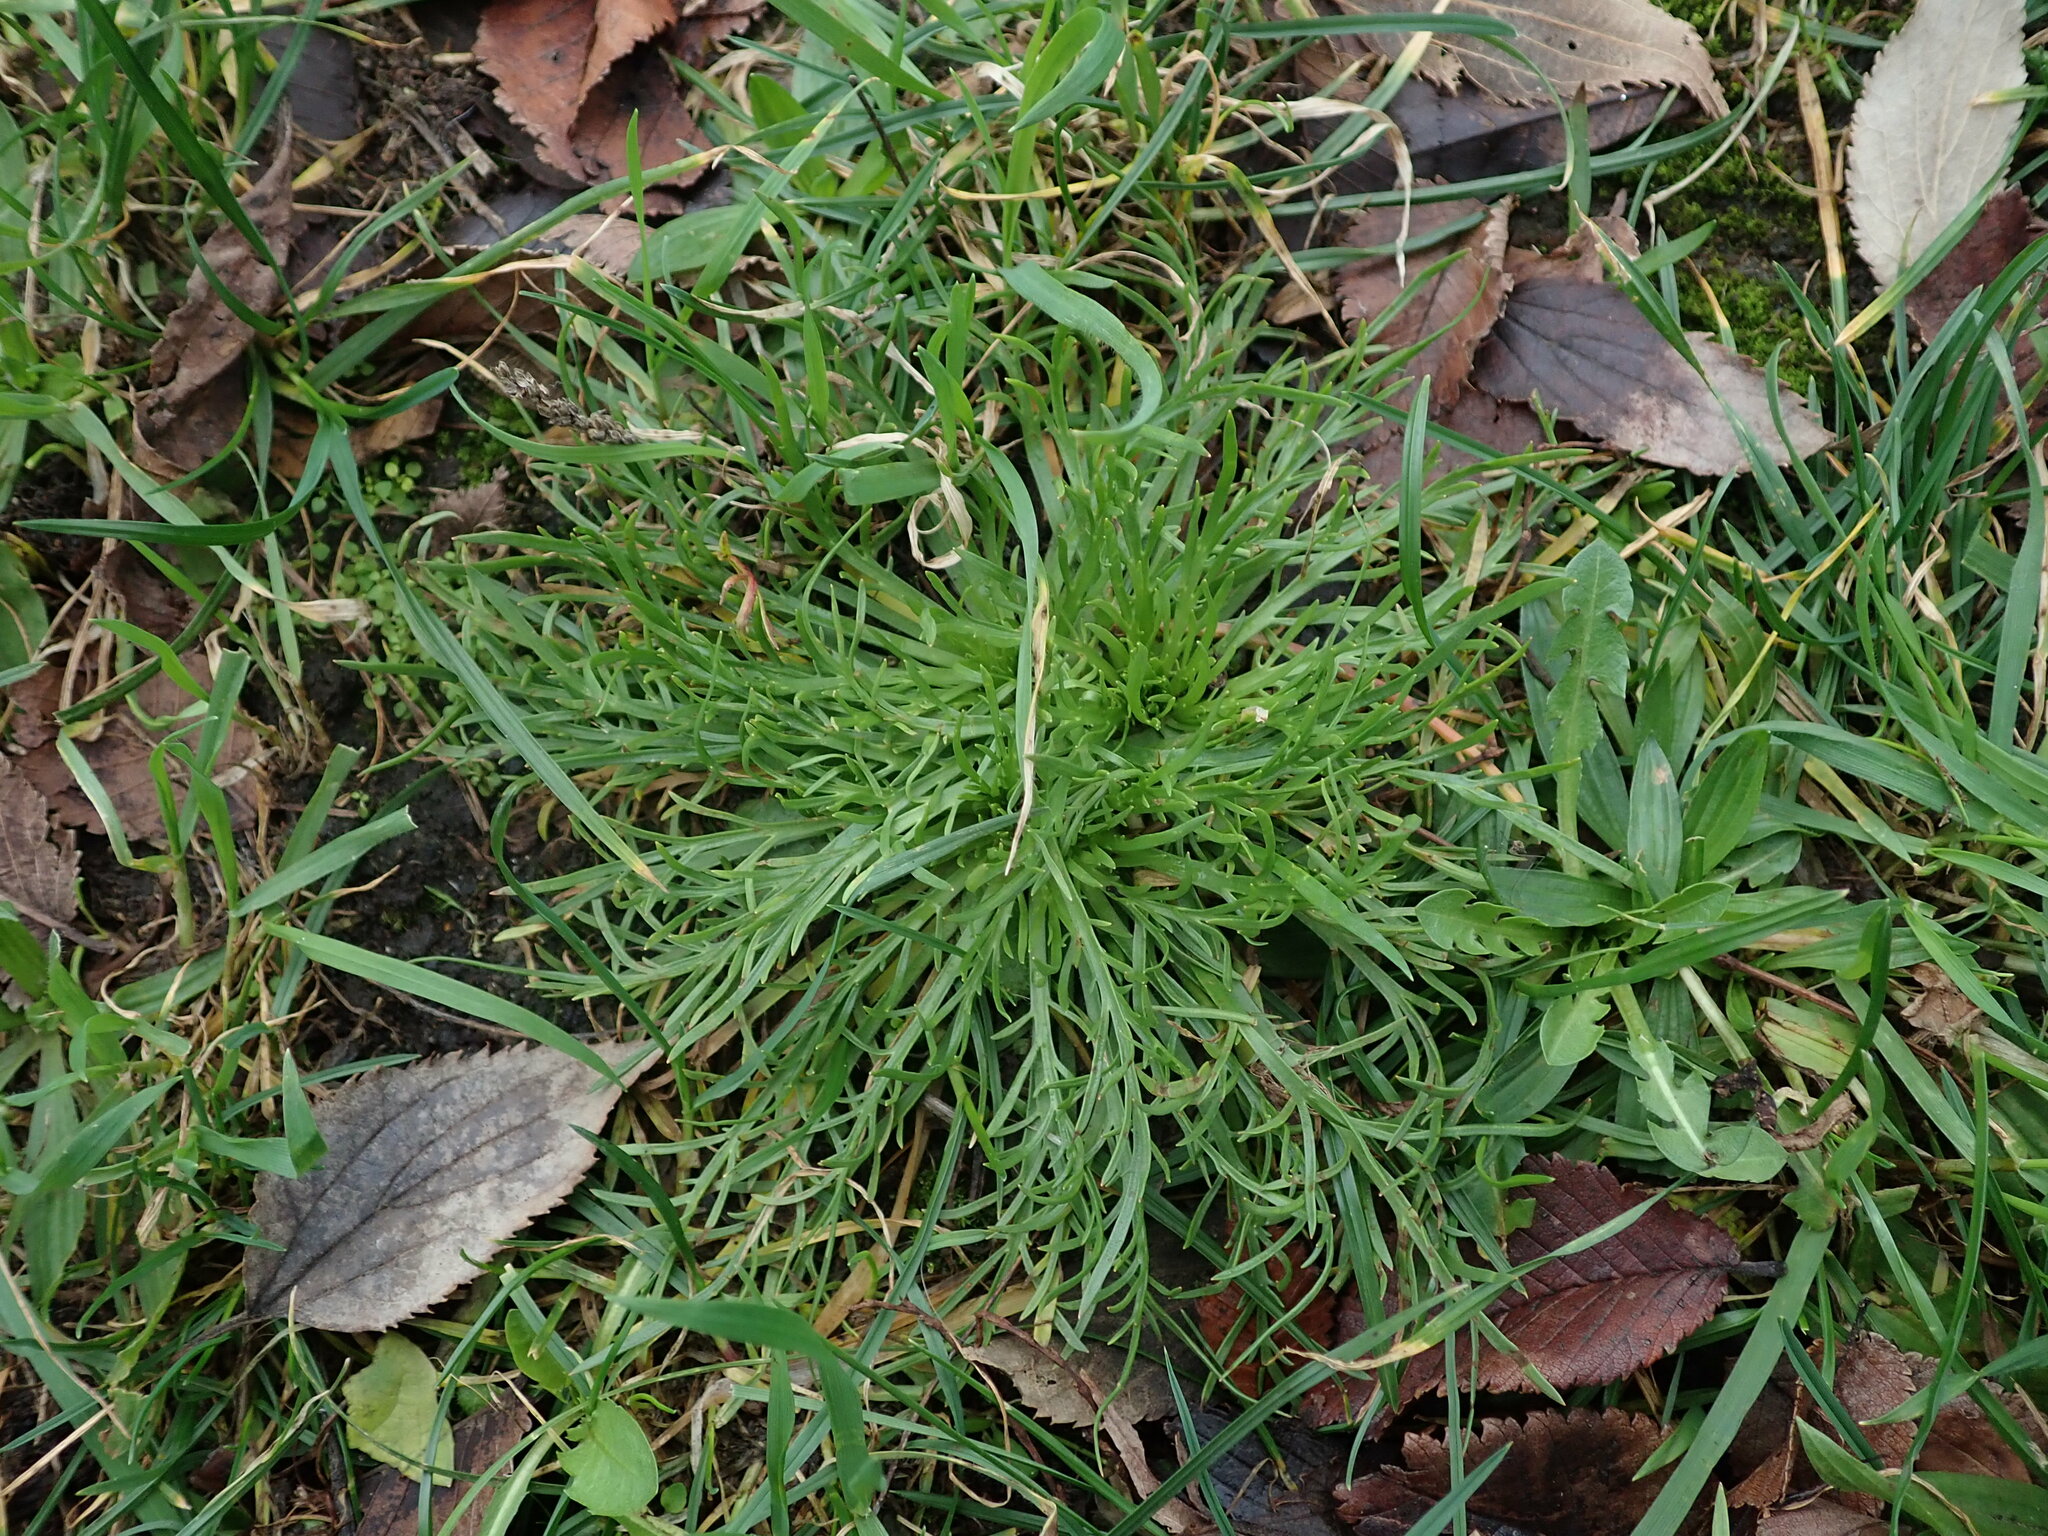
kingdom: Plantae
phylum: Tracheophyta
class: Magnoliopsida
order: Lamiales
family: Plantaginaceae
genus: Plantago
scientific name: Plantago coronopus
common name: Buck's-horn plantain
